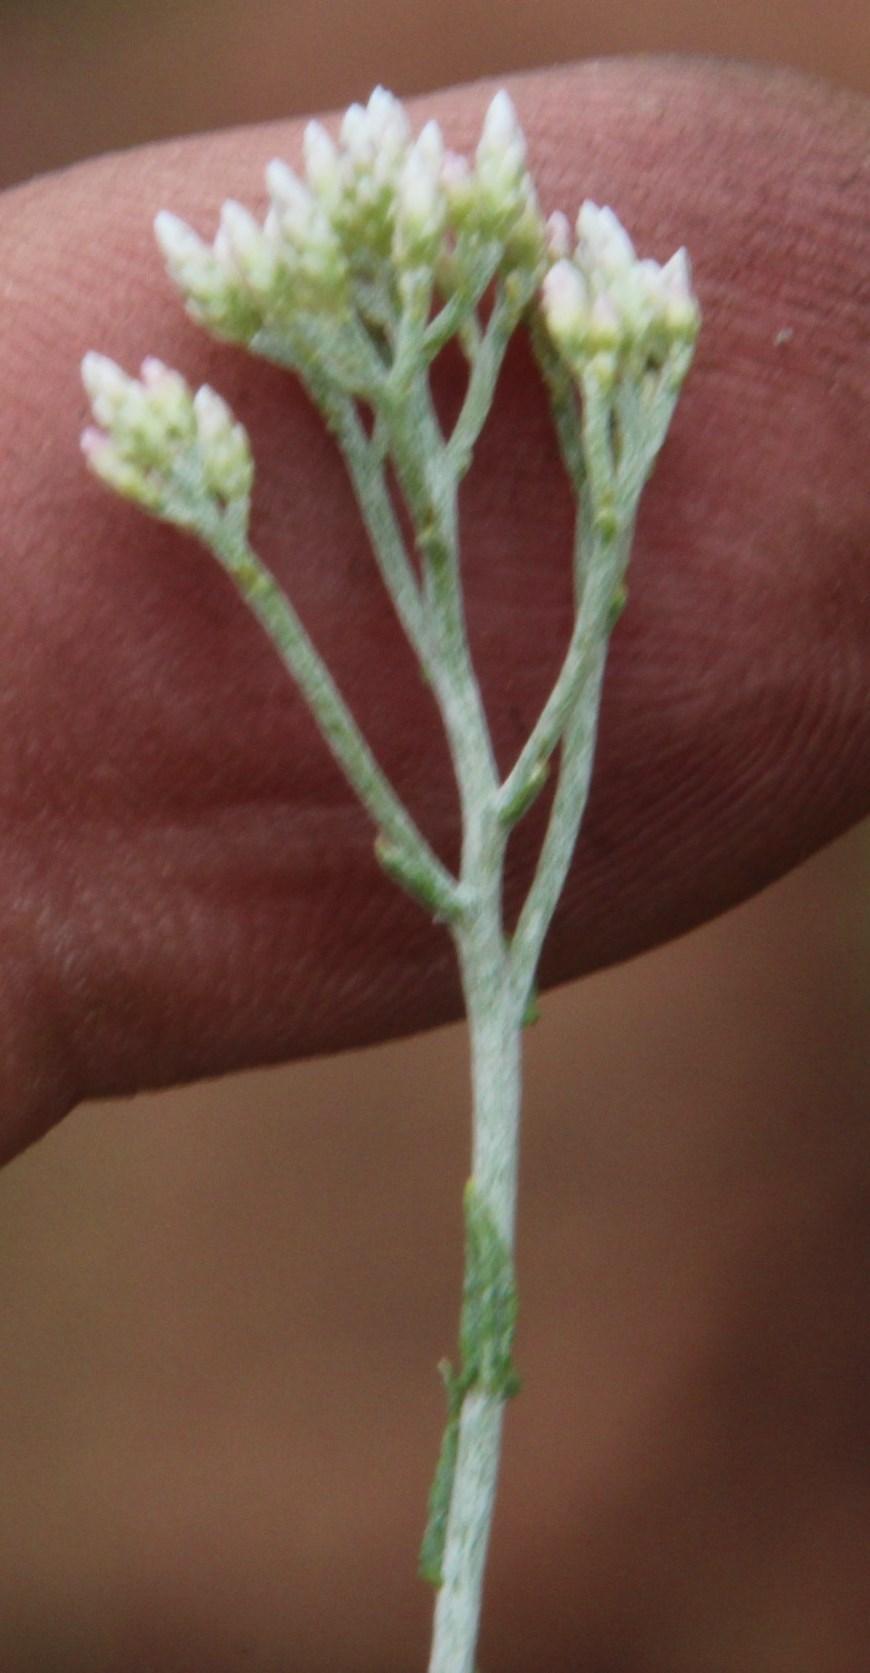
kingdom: Plantae
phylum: Tracheophyta
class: Magnoliopsida
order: Asterales
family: Asteraceae
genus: Helichrysum
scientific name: Helichrysum zeyheri
